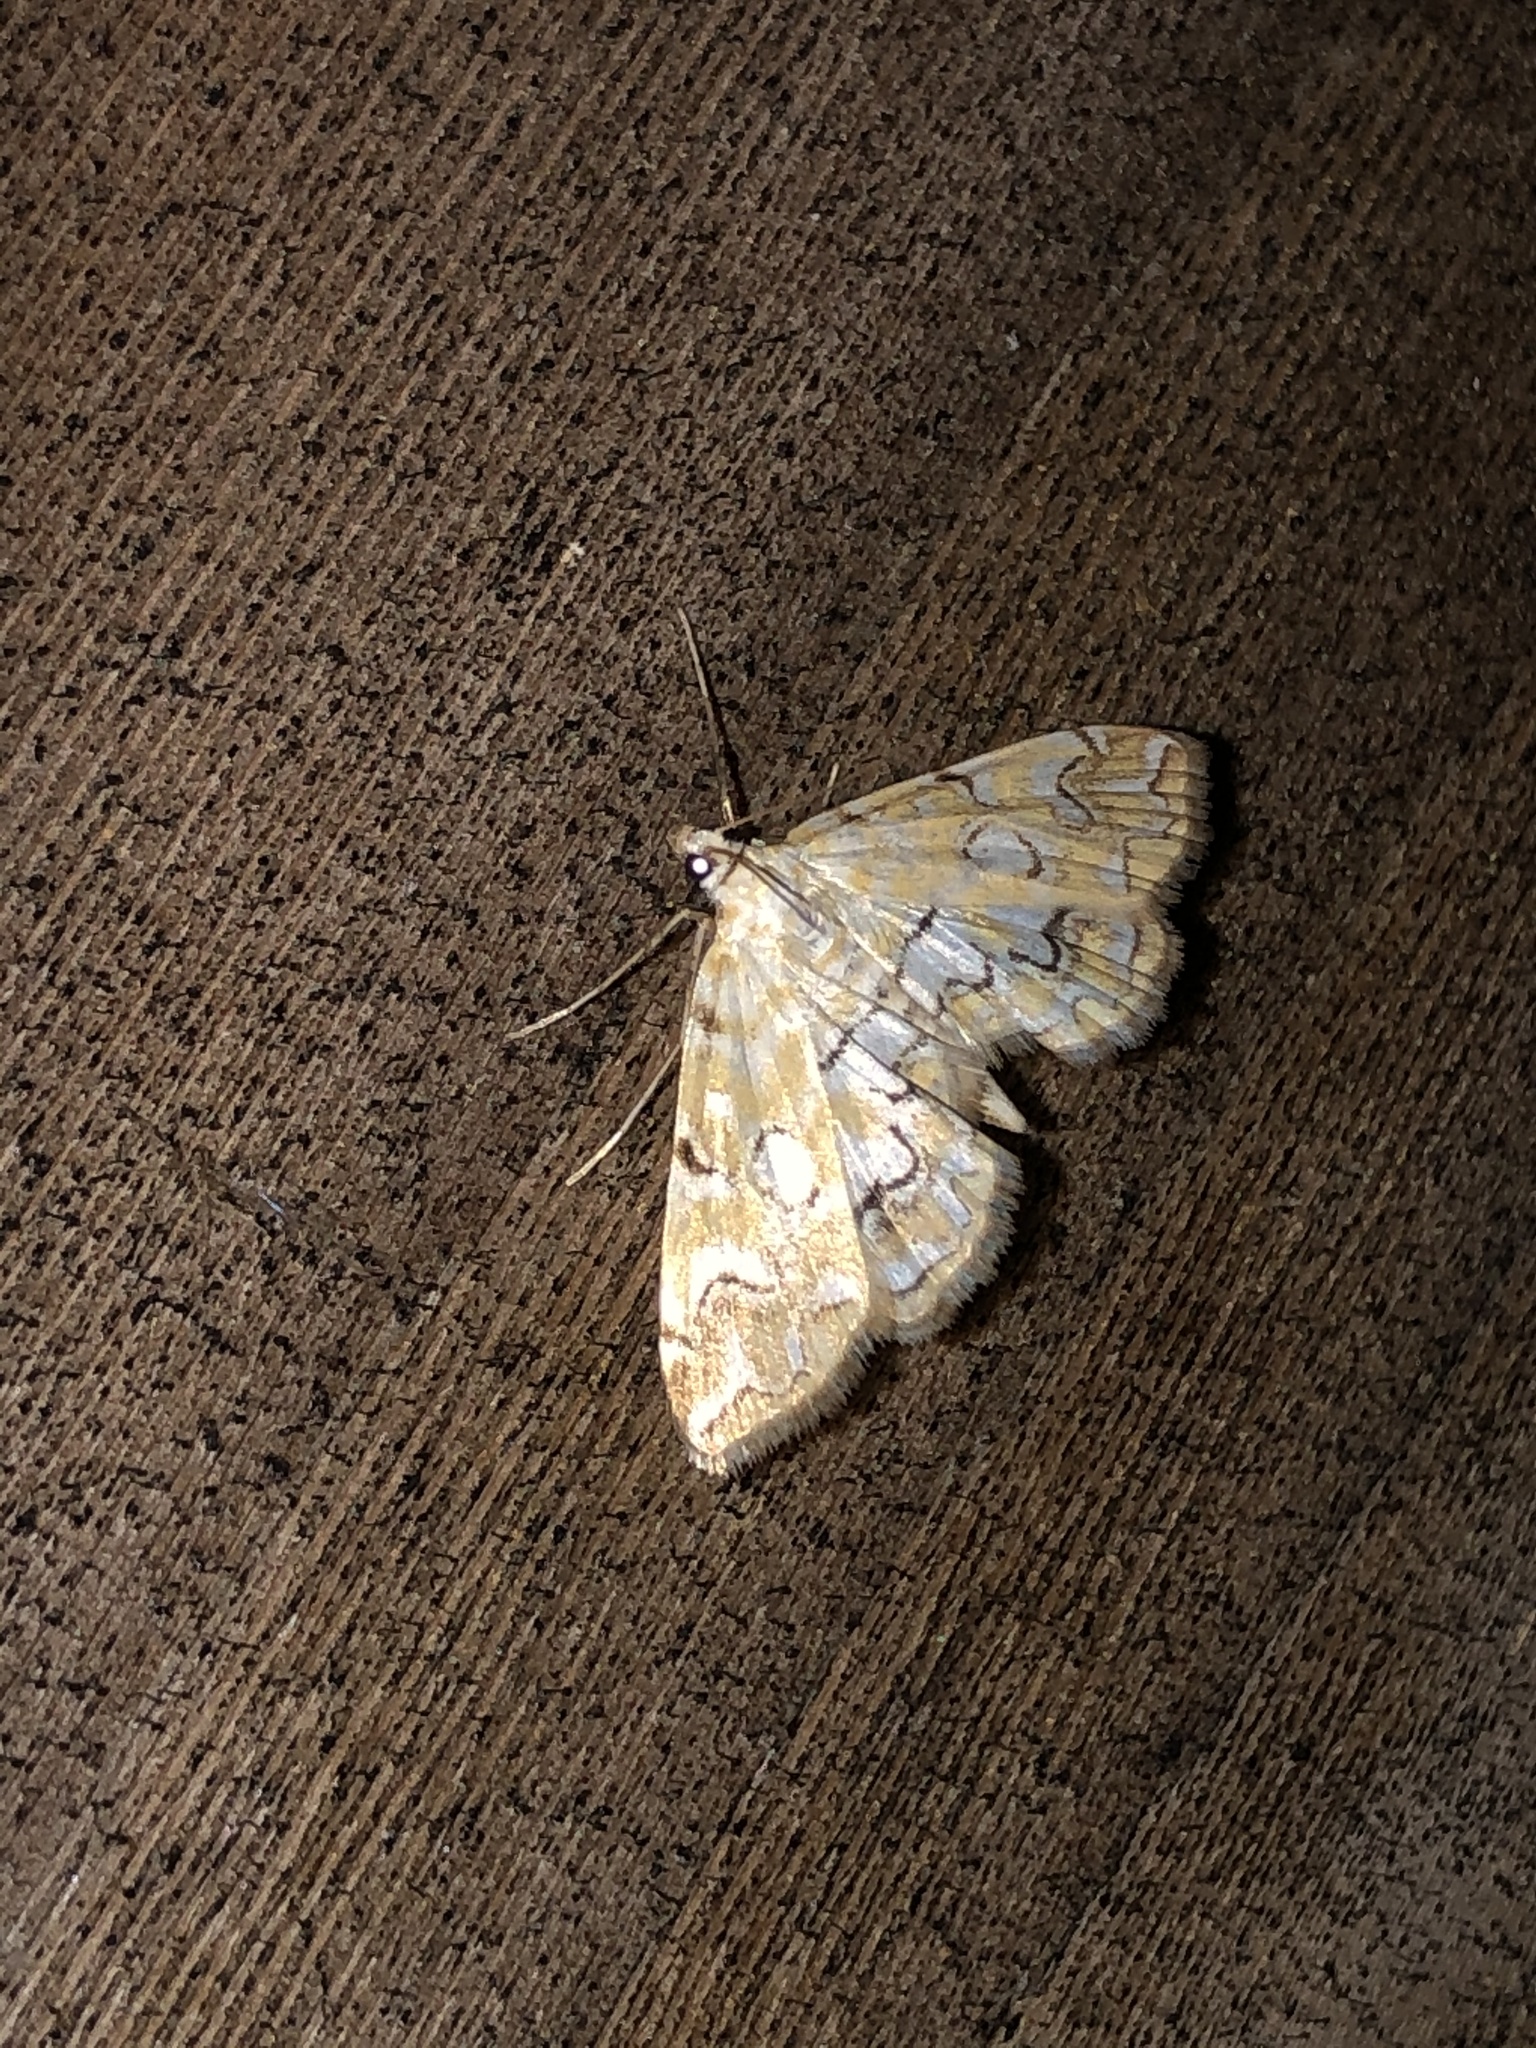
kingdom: Animalia
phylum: Arthropoda
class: Insecta
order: Lepidoptera
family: Crambidae
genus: Elophila
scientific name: Elophila icciusalis
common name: Pondside pyralid moth
